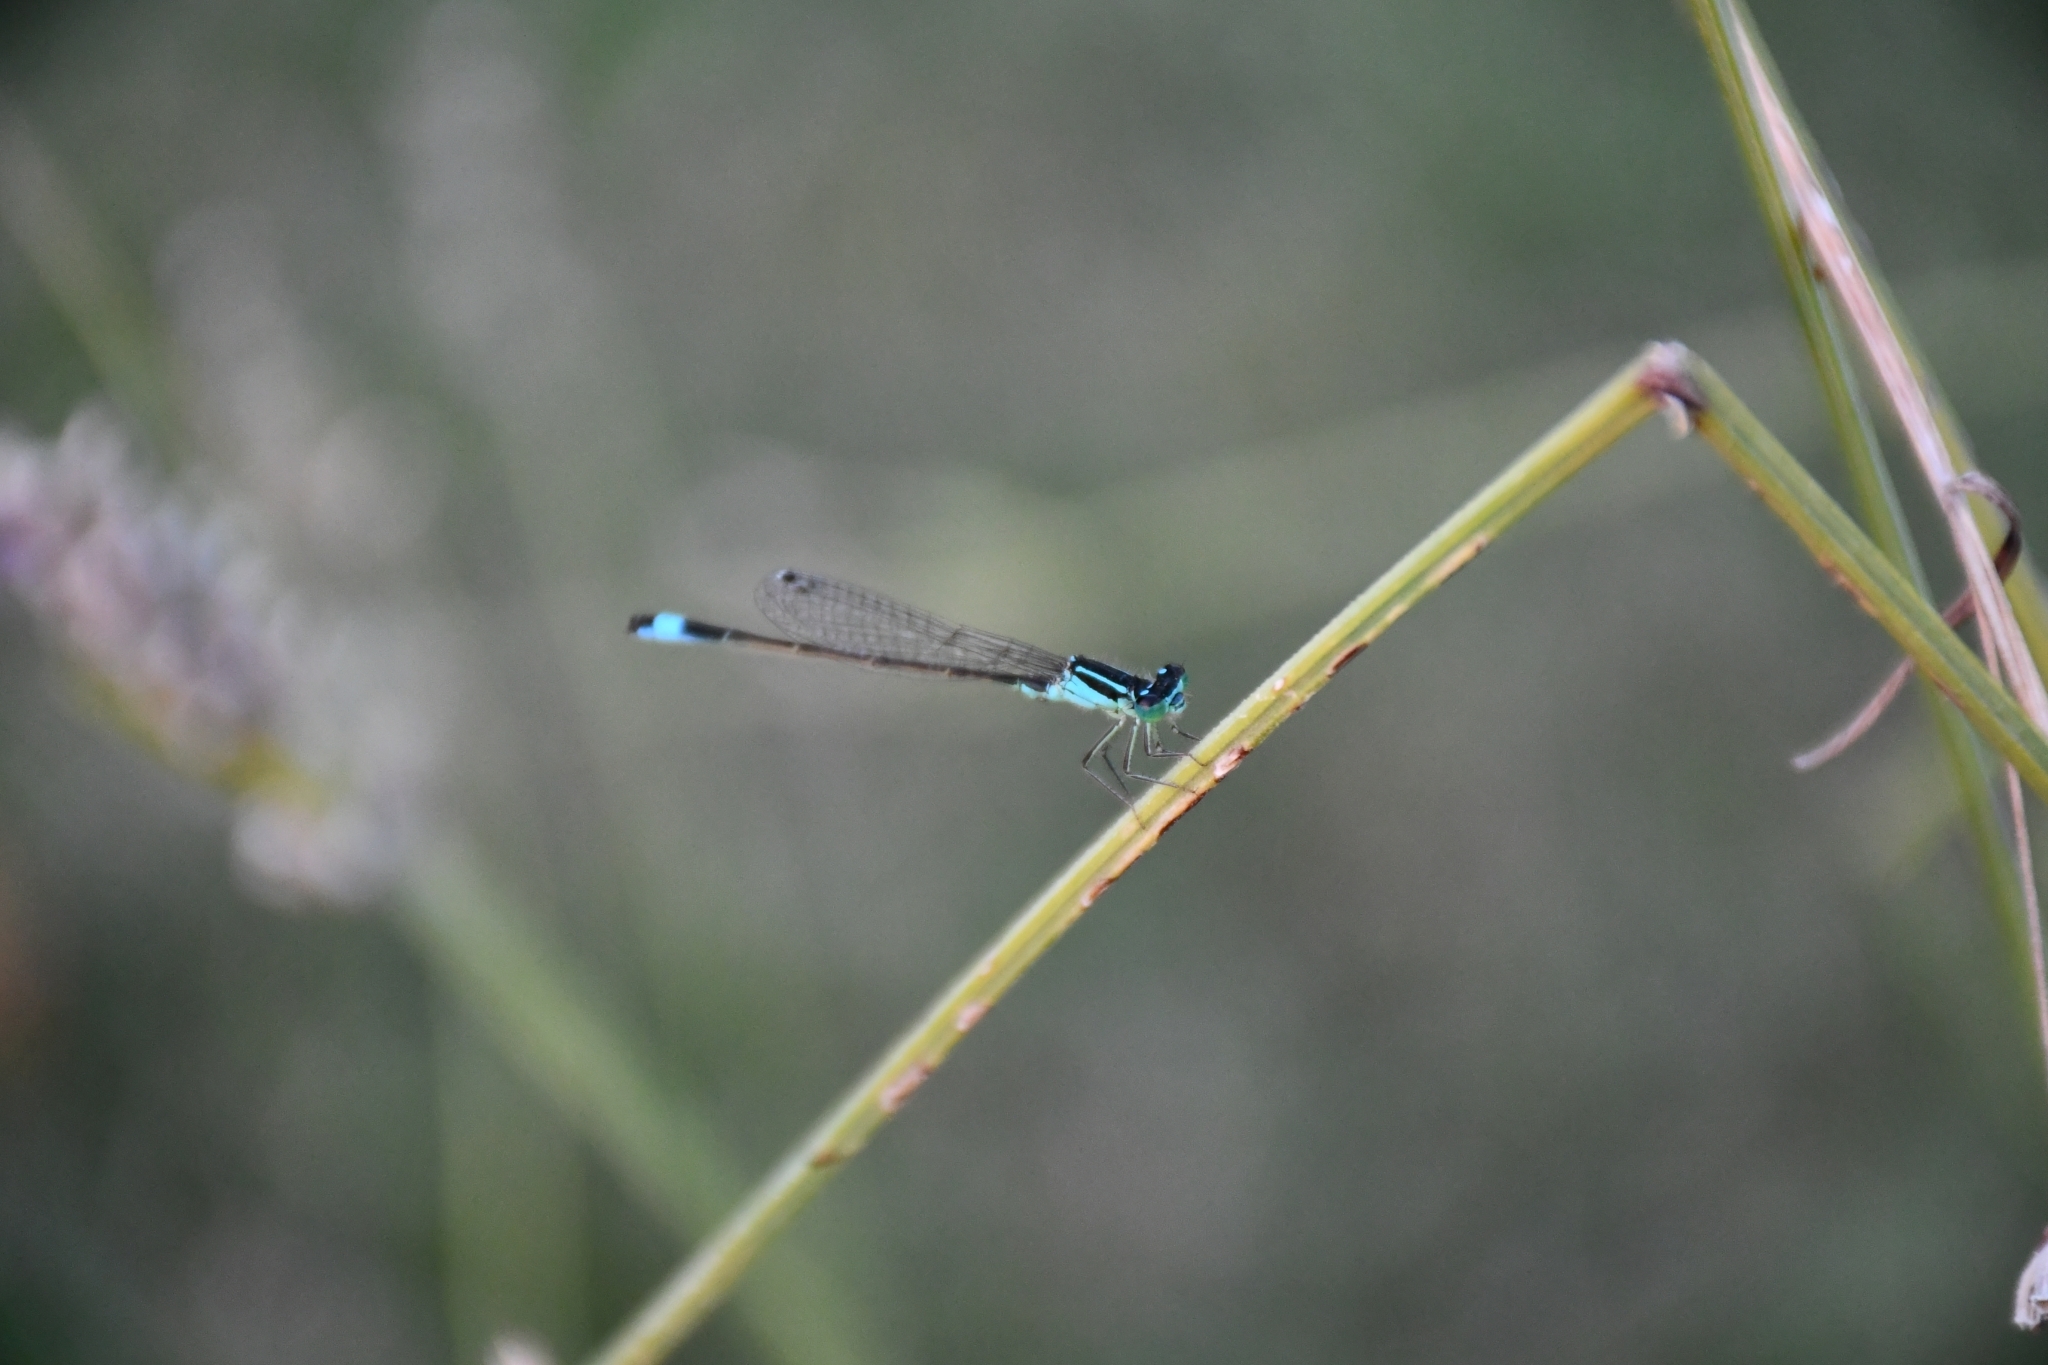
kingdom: Animalia
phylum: Arthropoda
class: Insecta
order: Odonata
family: Coenagrionidae
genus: Ischnura
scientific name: Ischnura elegans
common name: Blue-tailed damselfly
